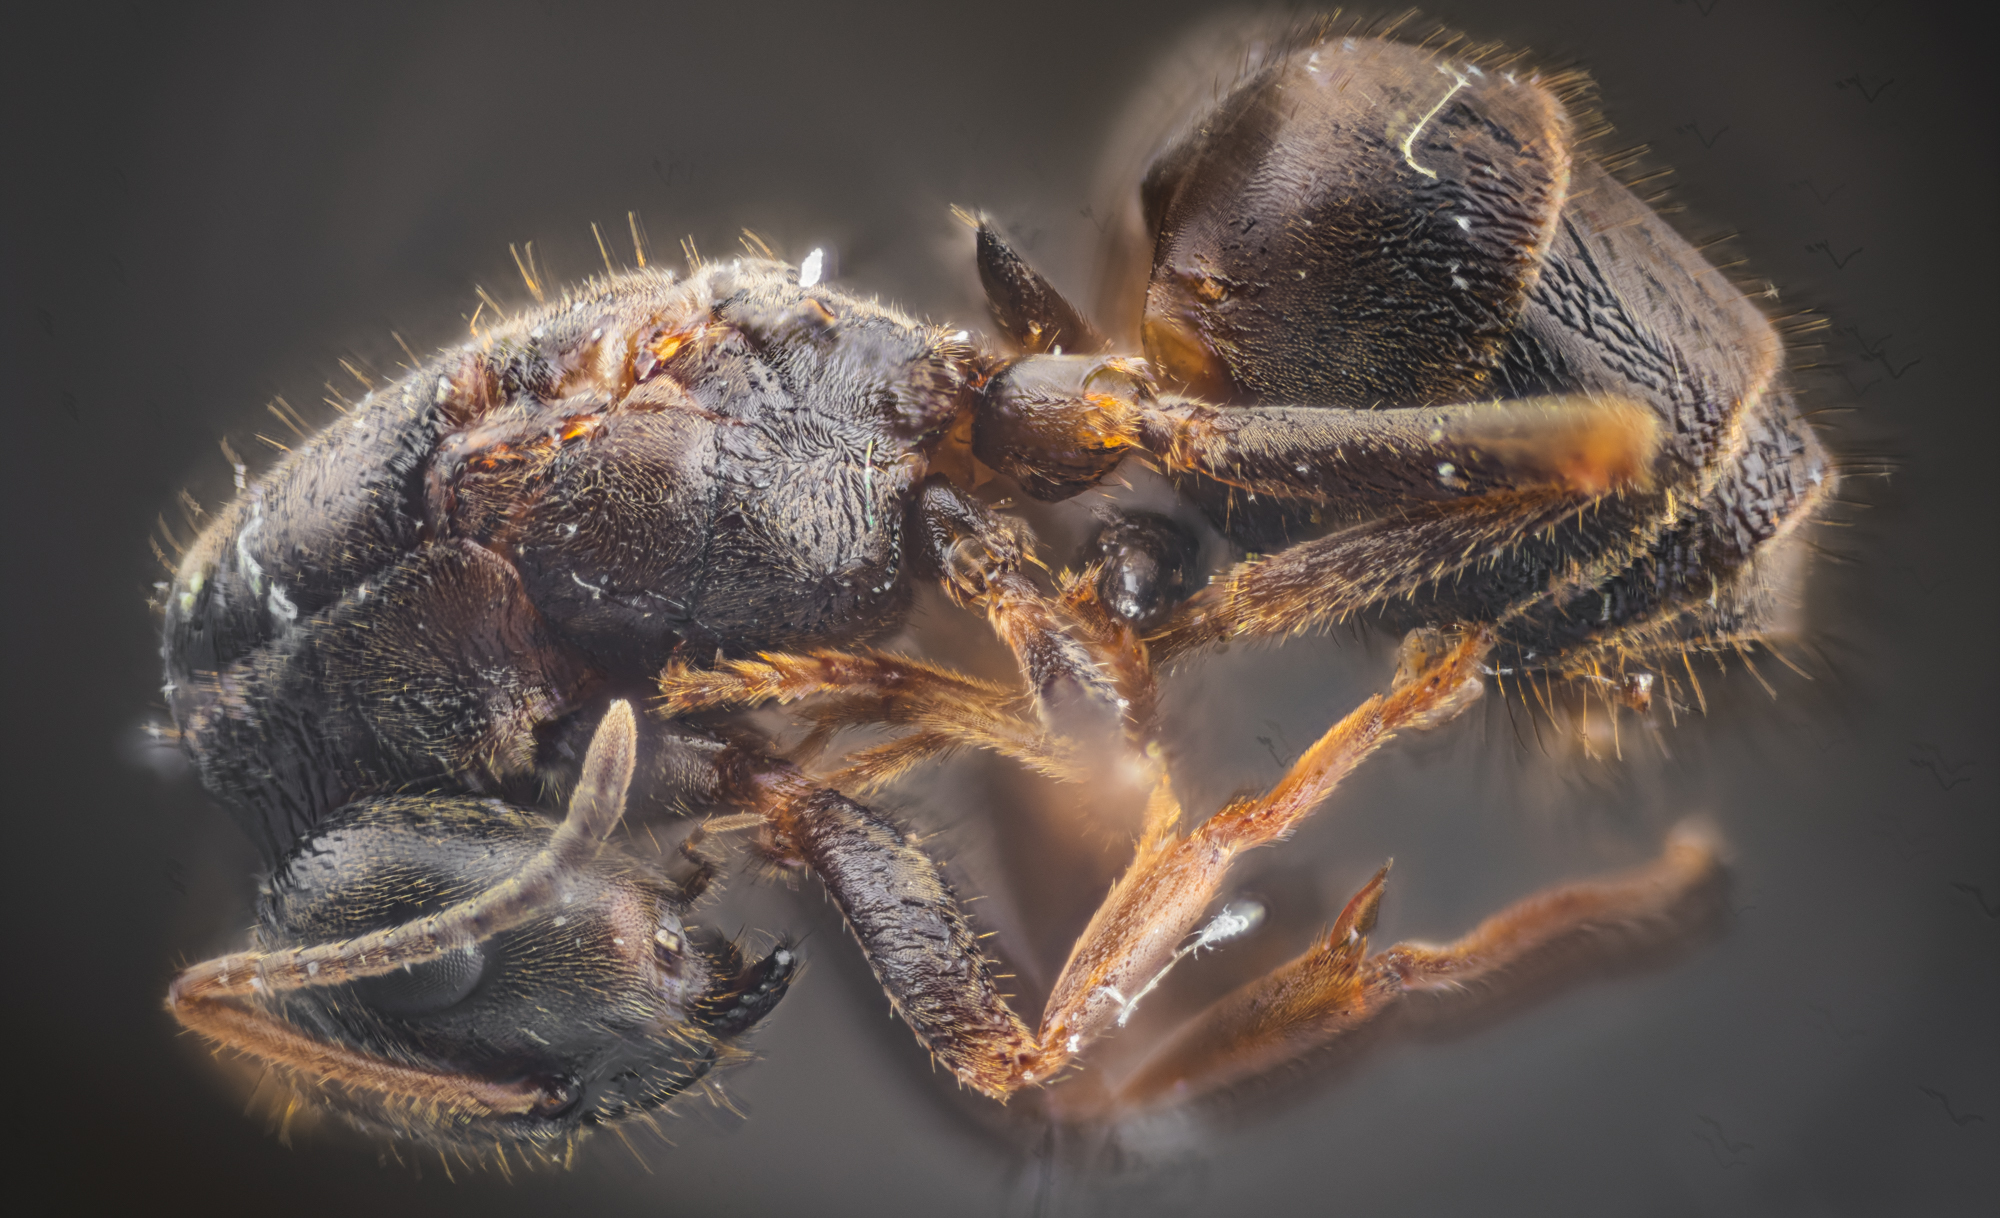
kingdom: Animalia
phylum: Arthropoda
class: Insecta
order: Hymenoptera
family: Formicidae
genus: Lasius
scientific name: Lasius platythorax
